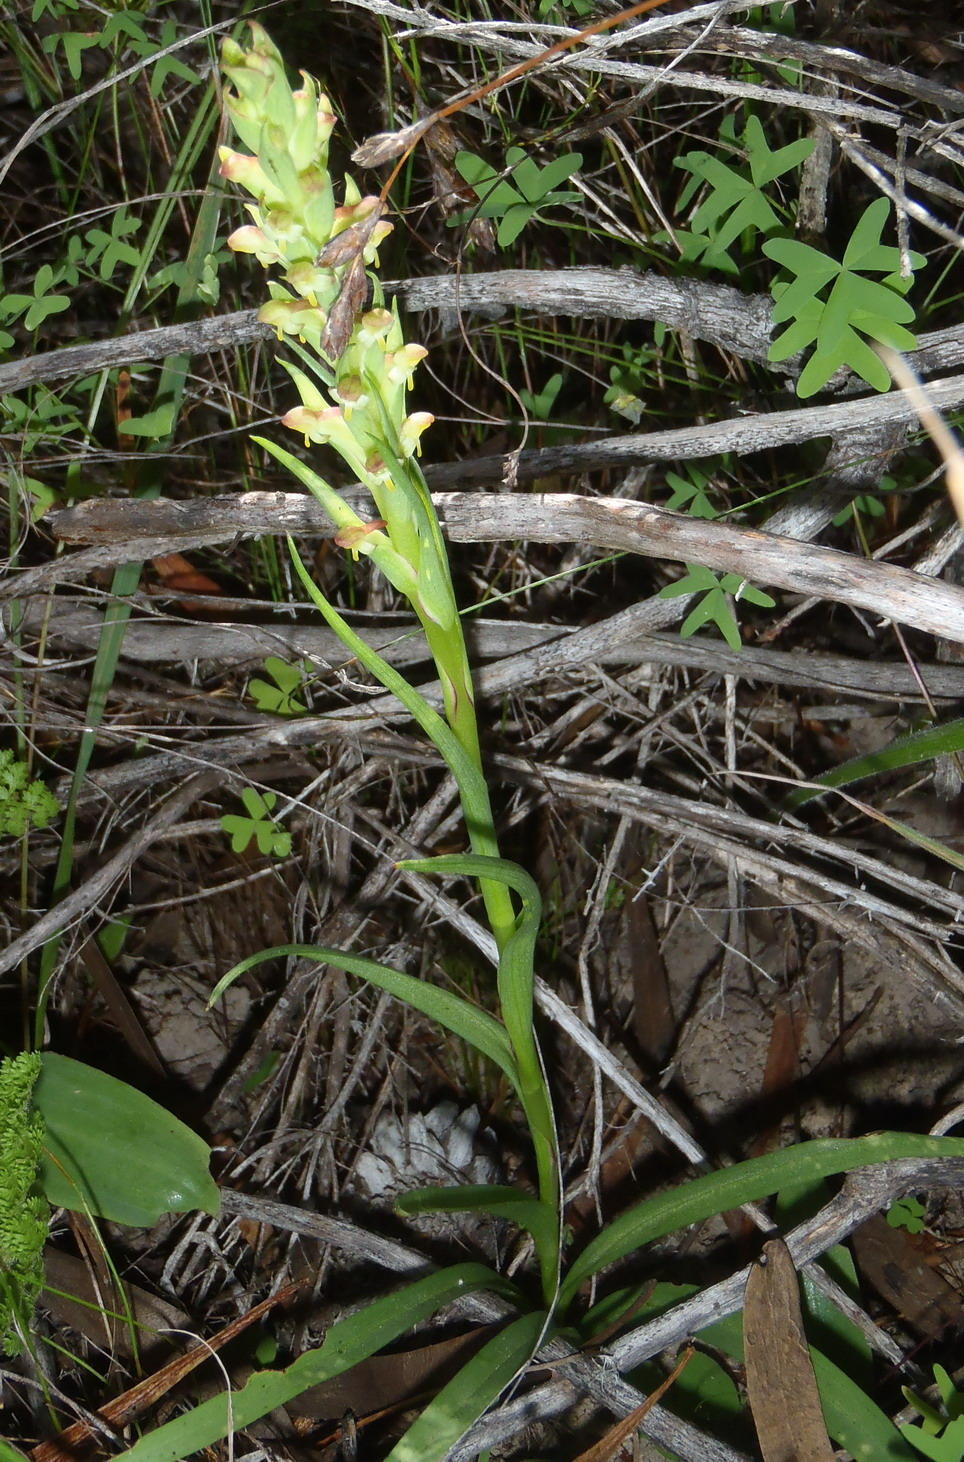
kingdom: Plantae
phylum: Tracheophyta
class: Liliopsida
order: Asparagales
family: Orchidaceae
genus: Disa
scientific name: Disa bracteata
